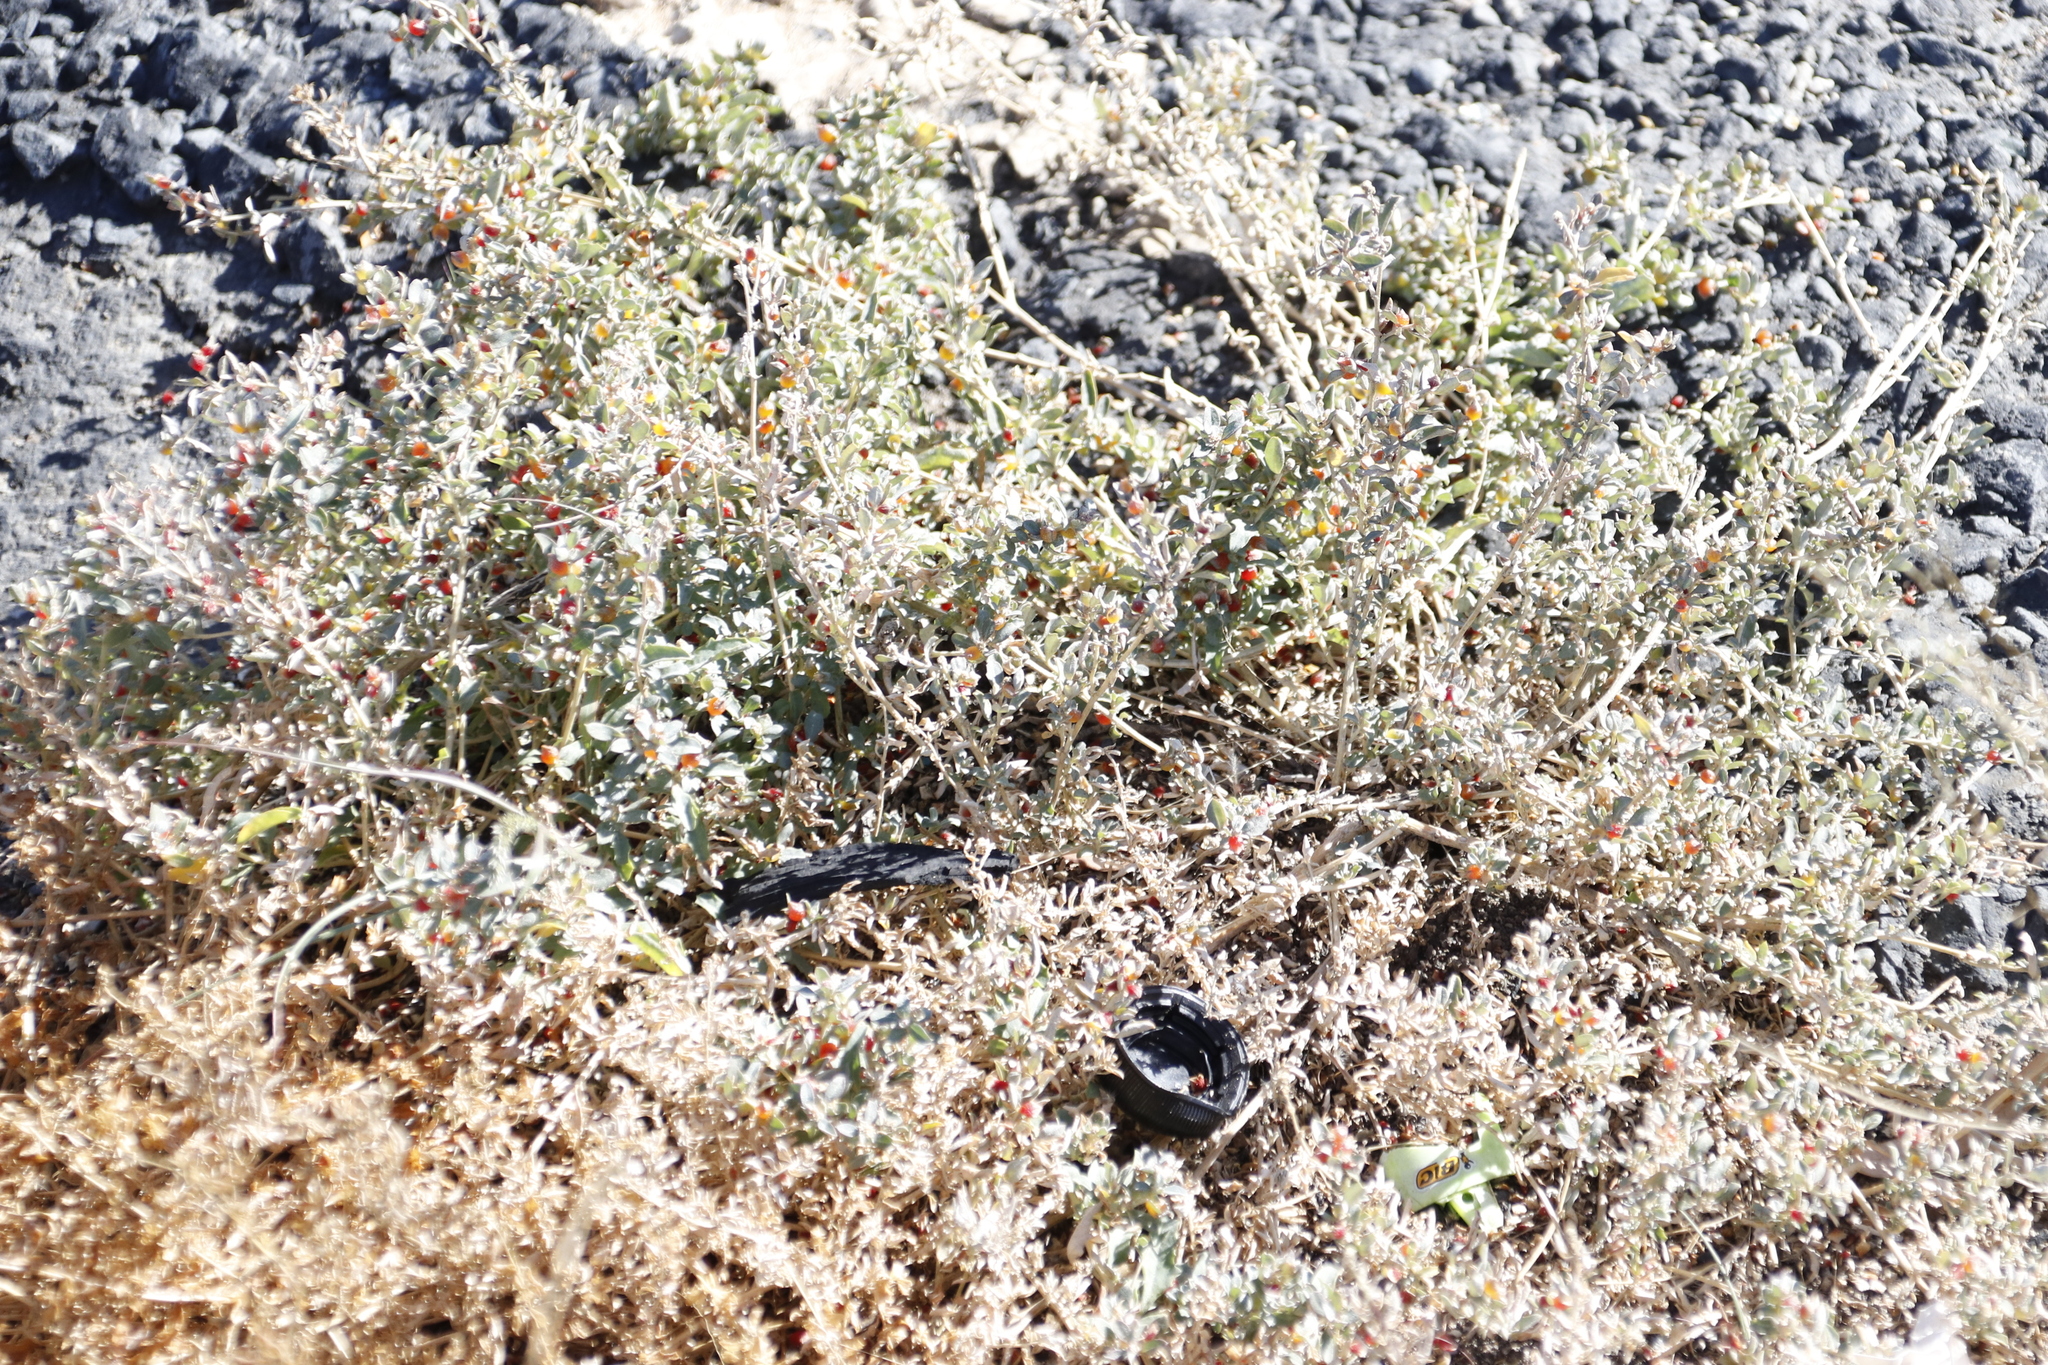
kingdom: Plantae
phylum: Tracheophyta
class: Magnoliopsida
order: Caryophyllales
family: Amaranthaceae
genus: Atriplex
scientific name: Atriplex semibaccata
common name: Australian saltbush
